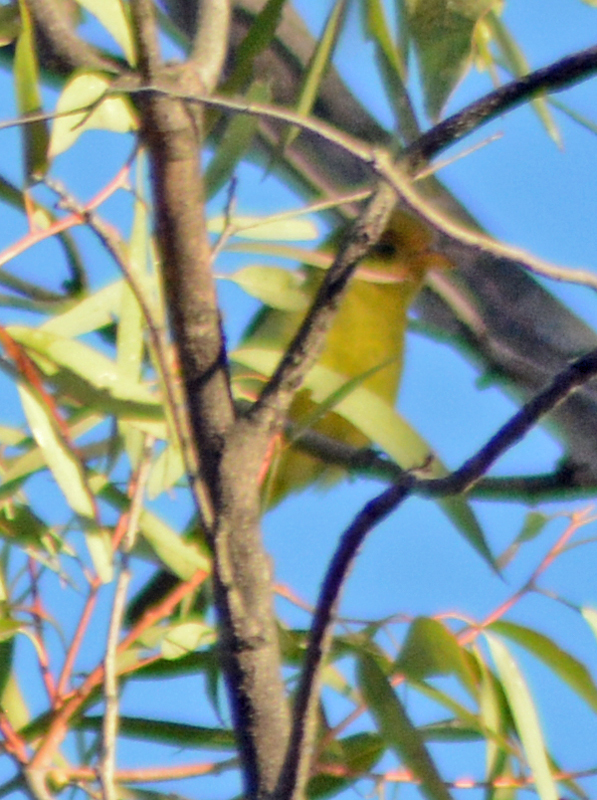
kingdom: Animalia
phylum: Chordata
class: Aves
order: Passeriformes
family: Cardinalidae
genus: Piranga
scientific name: Piranga ludoviciana
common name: Western tanager
